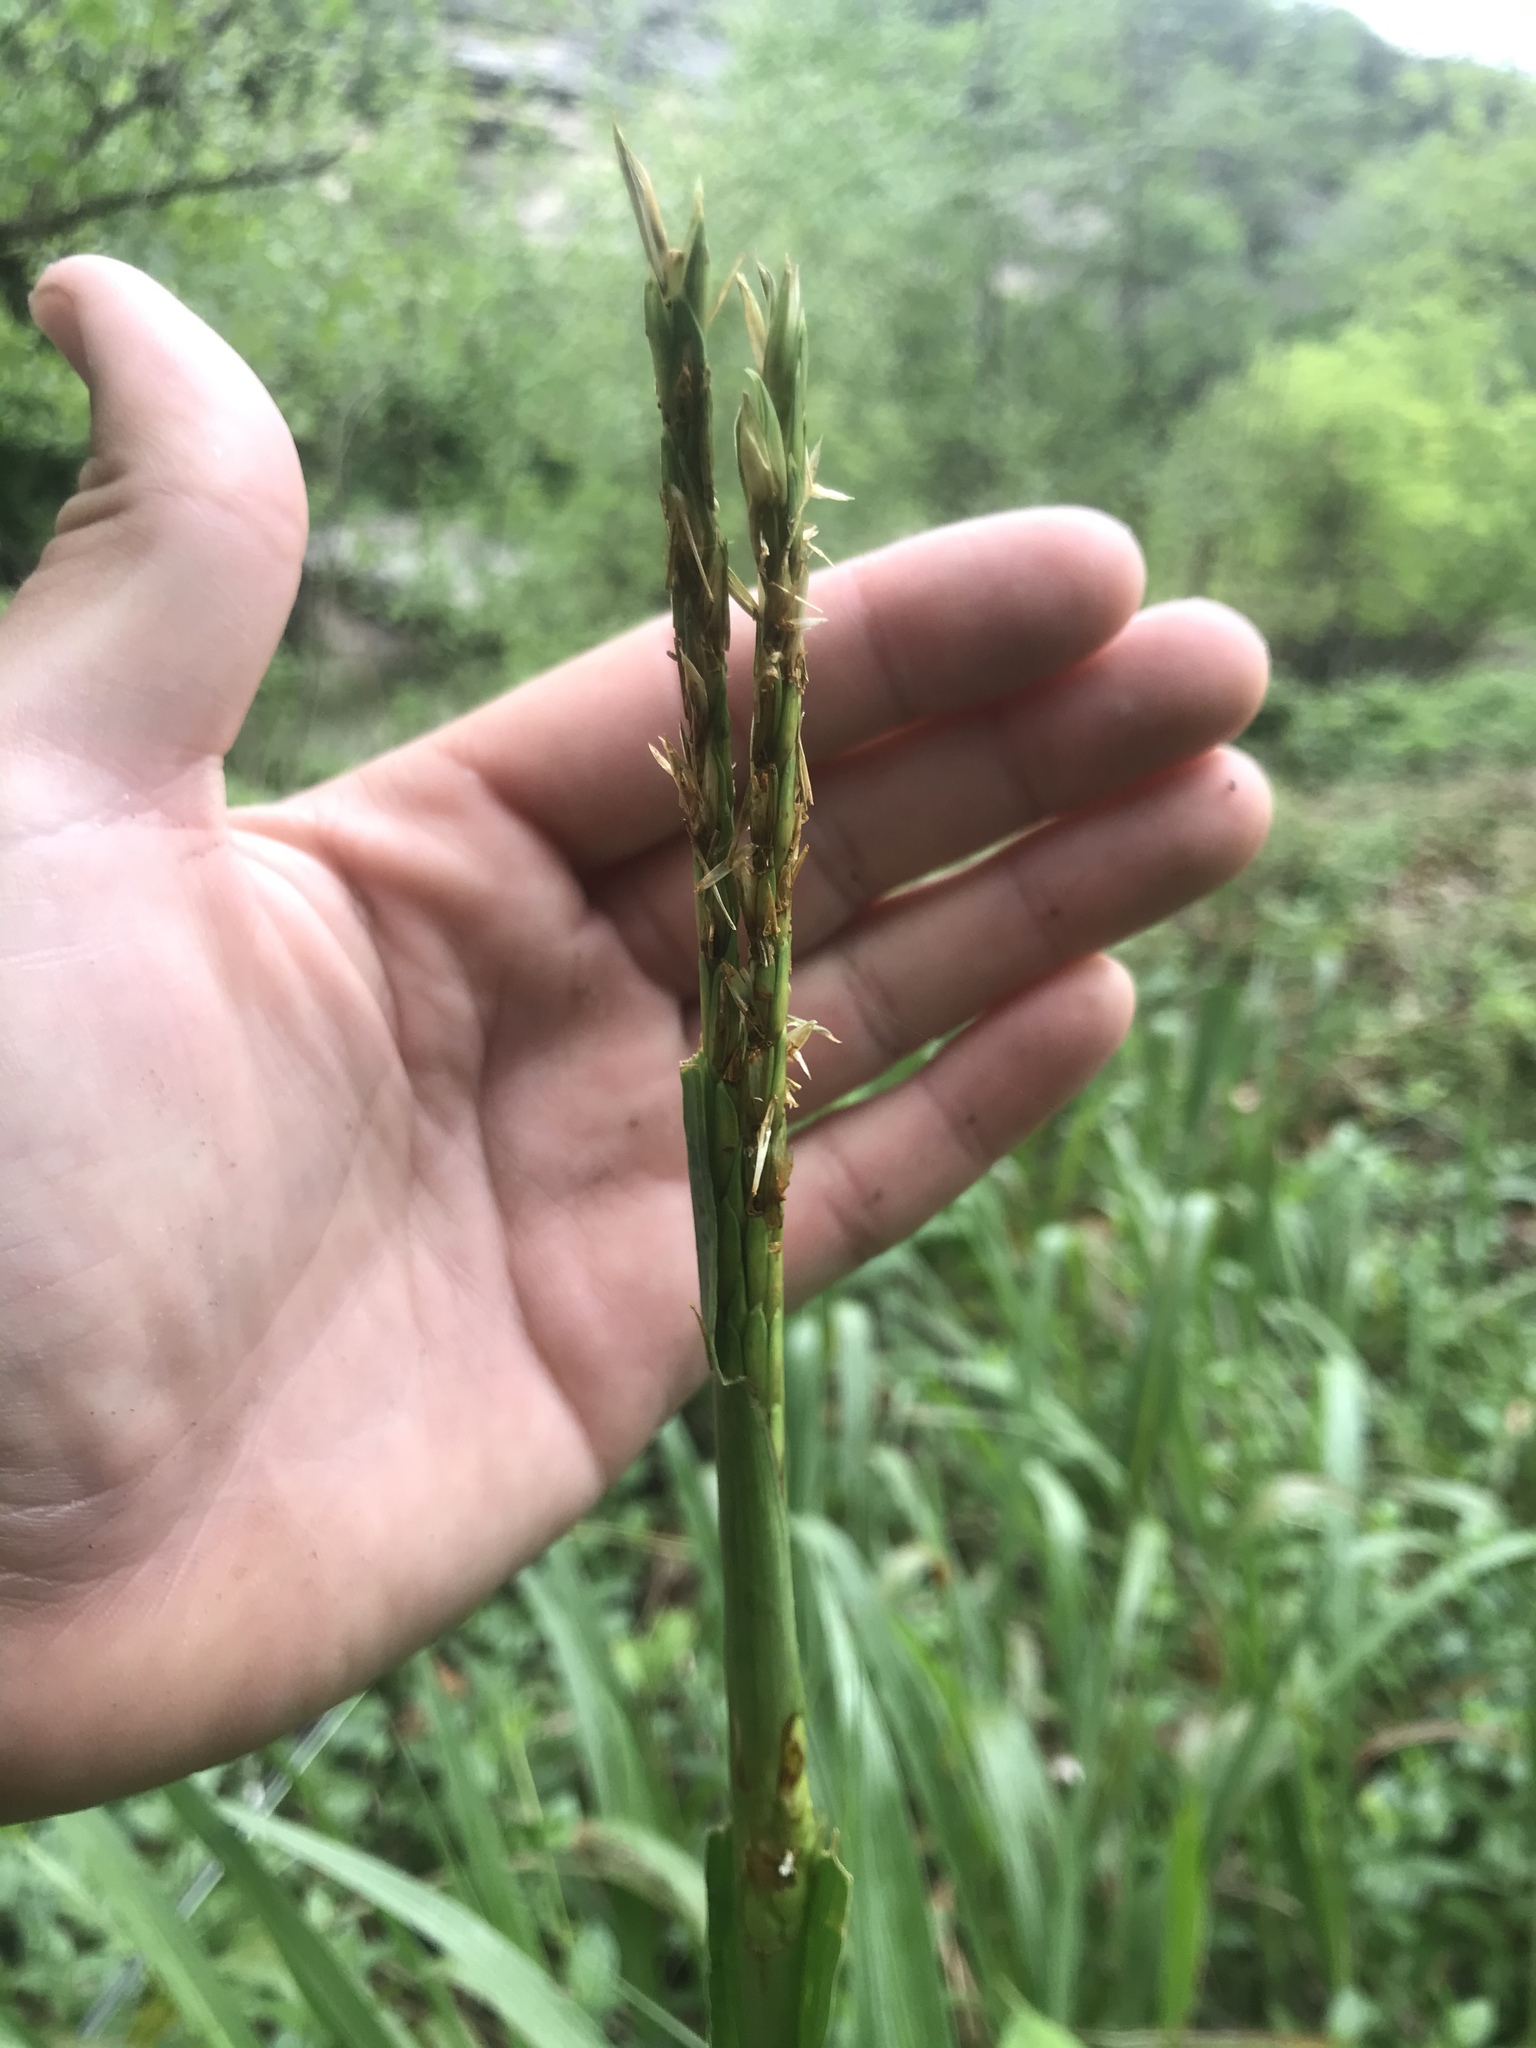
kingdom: Plantae
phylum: Tracheophyta
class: Liliopsida
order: Poales
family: Poaceae
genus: Tripsacum
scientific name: Tripsacum dactyloides
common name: Buffalo-grass
